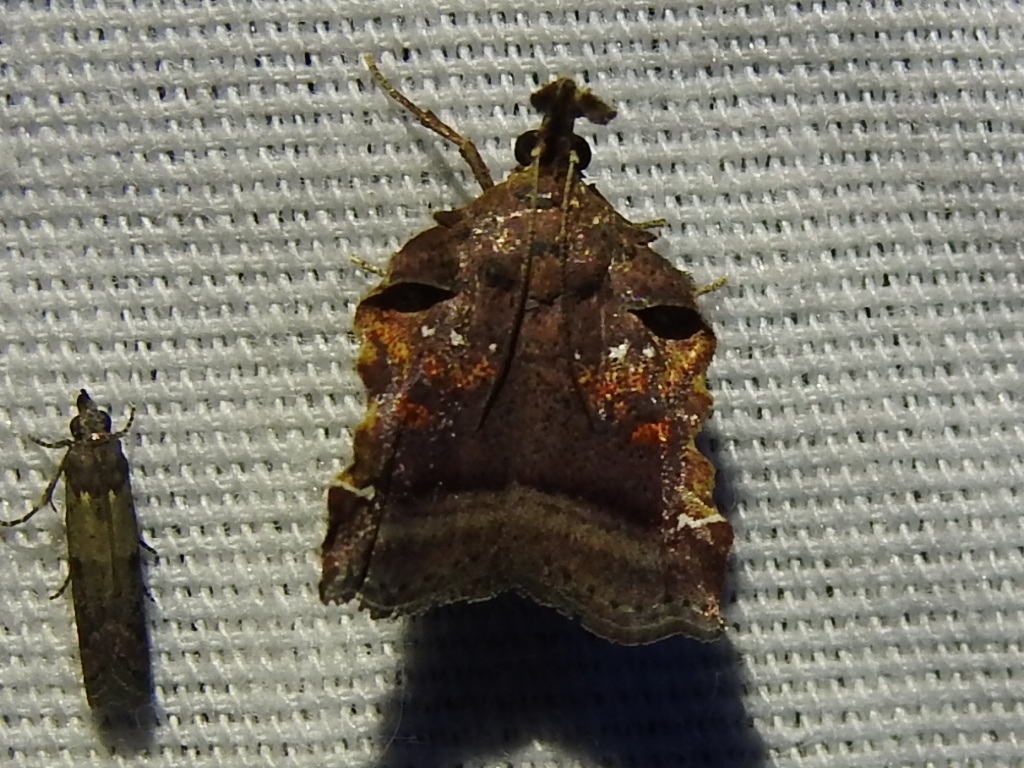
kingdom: Animalia
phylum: Arthropoda
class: Insecta
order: Lepidoptera
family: Pyralidae
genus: Clydonopteron
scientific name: Clydonopteron sacculana
